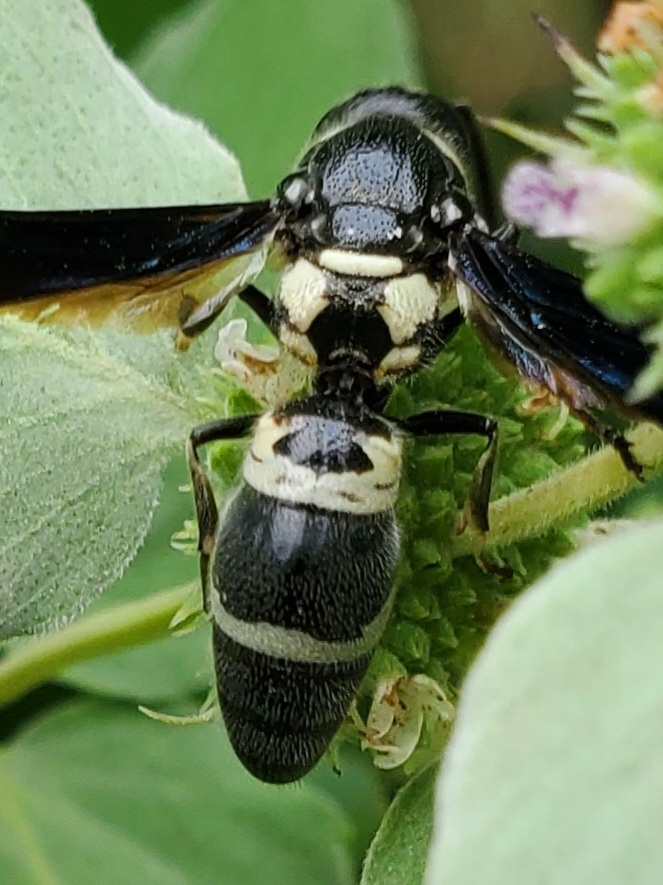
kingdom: Animalia
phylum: Arthropoda
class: Insecta
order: Hymenoptera
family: Eumenidae
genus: Pseudodynerus
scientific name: Pseudodynerus quadrisectus
